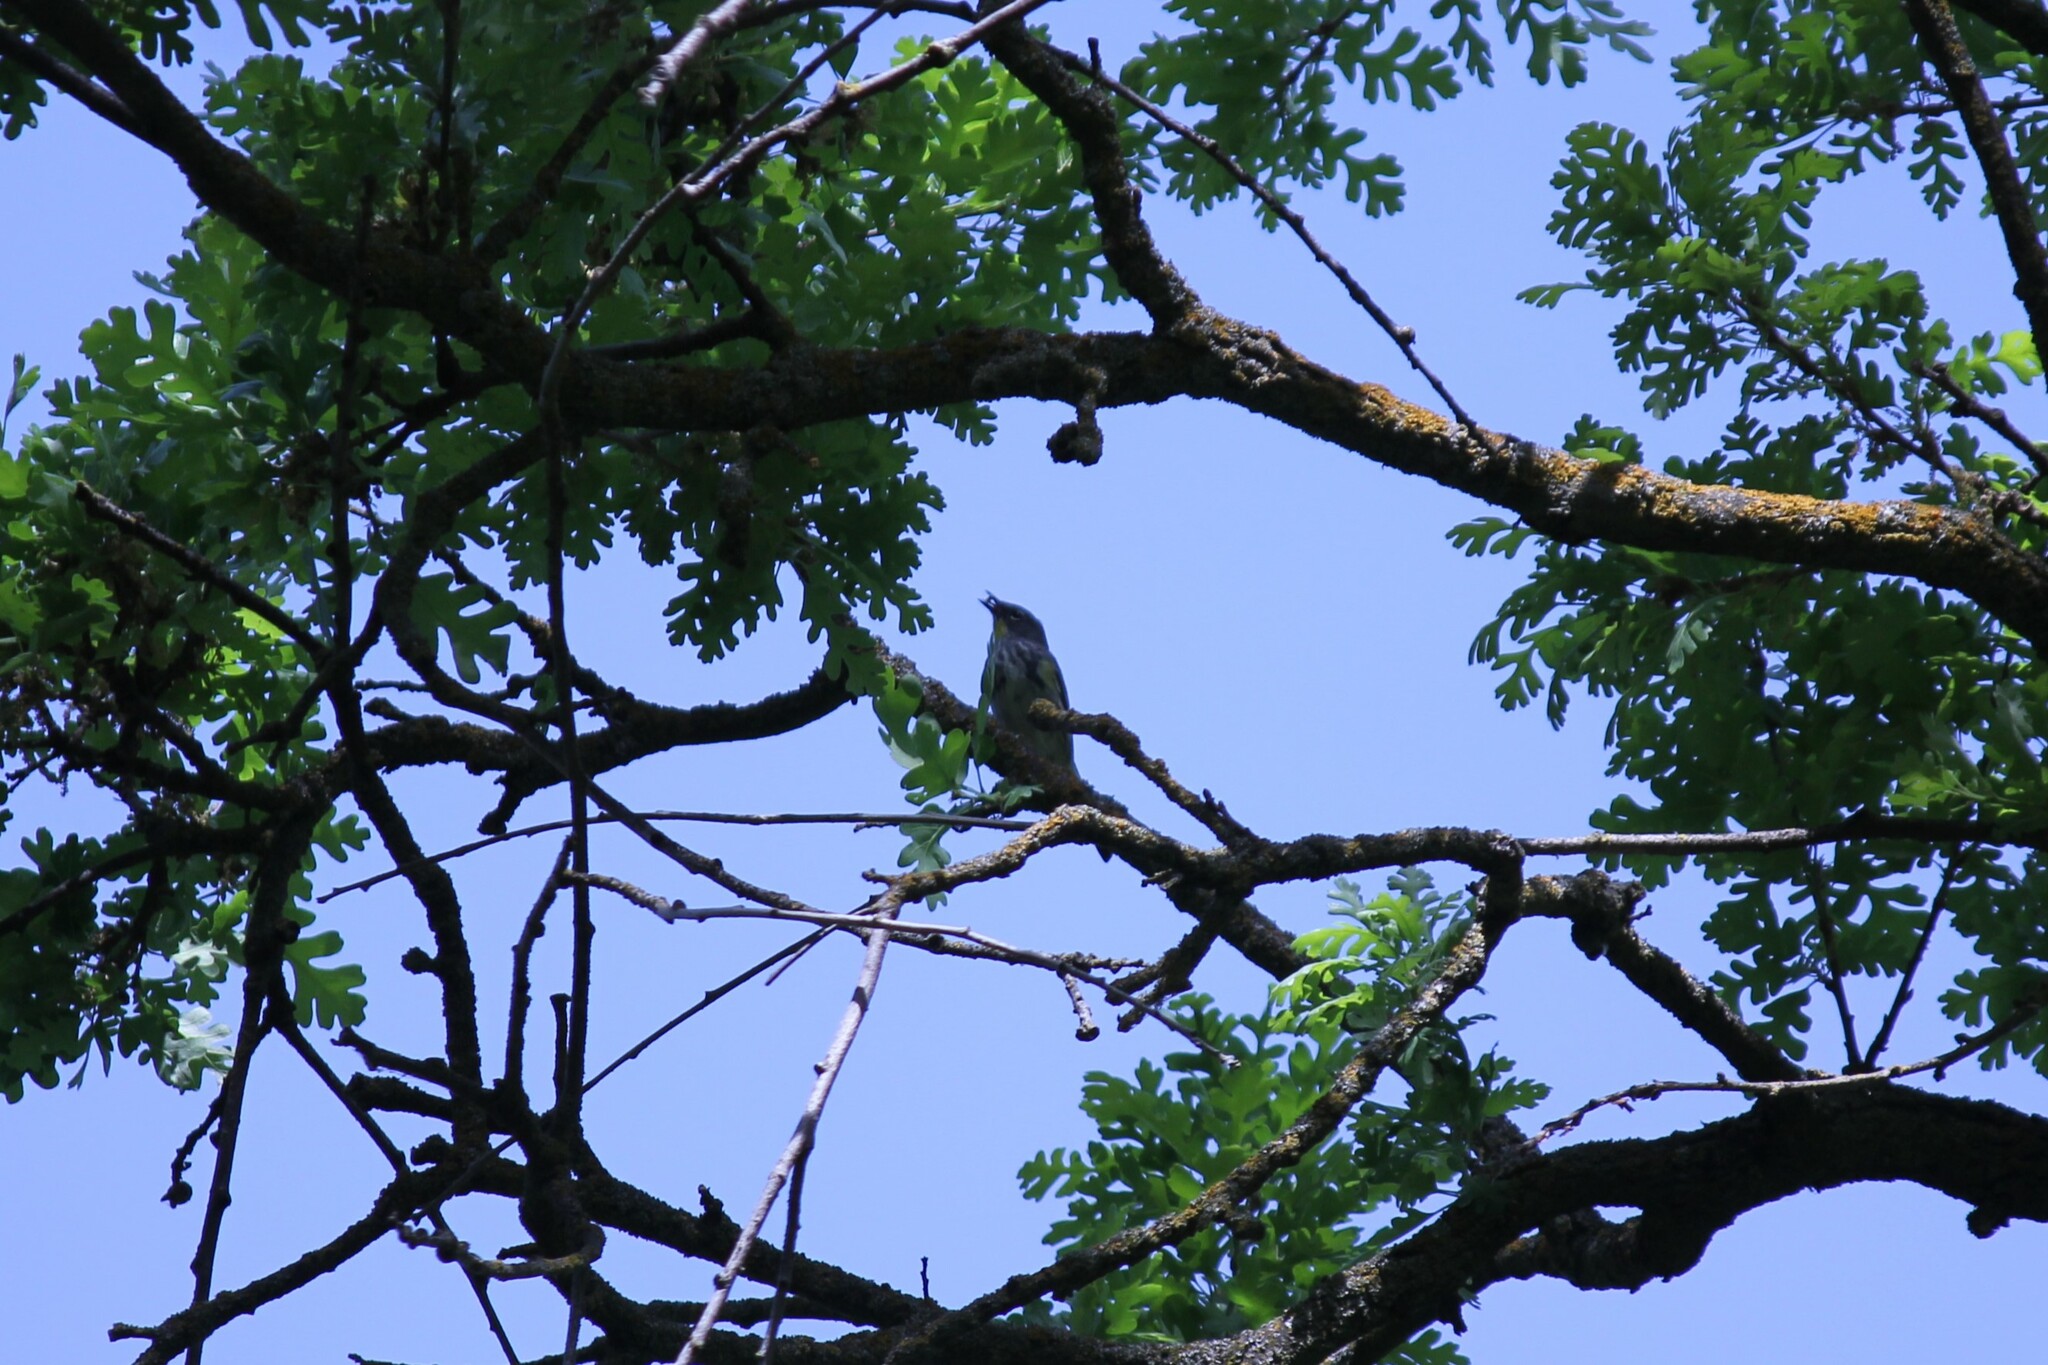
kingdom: Animalia
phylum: Chordata
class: Aves
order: Passeriformes
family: Parulidae
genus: Setophaga
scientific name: Setophaga coronata
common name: Myrtle warbler
